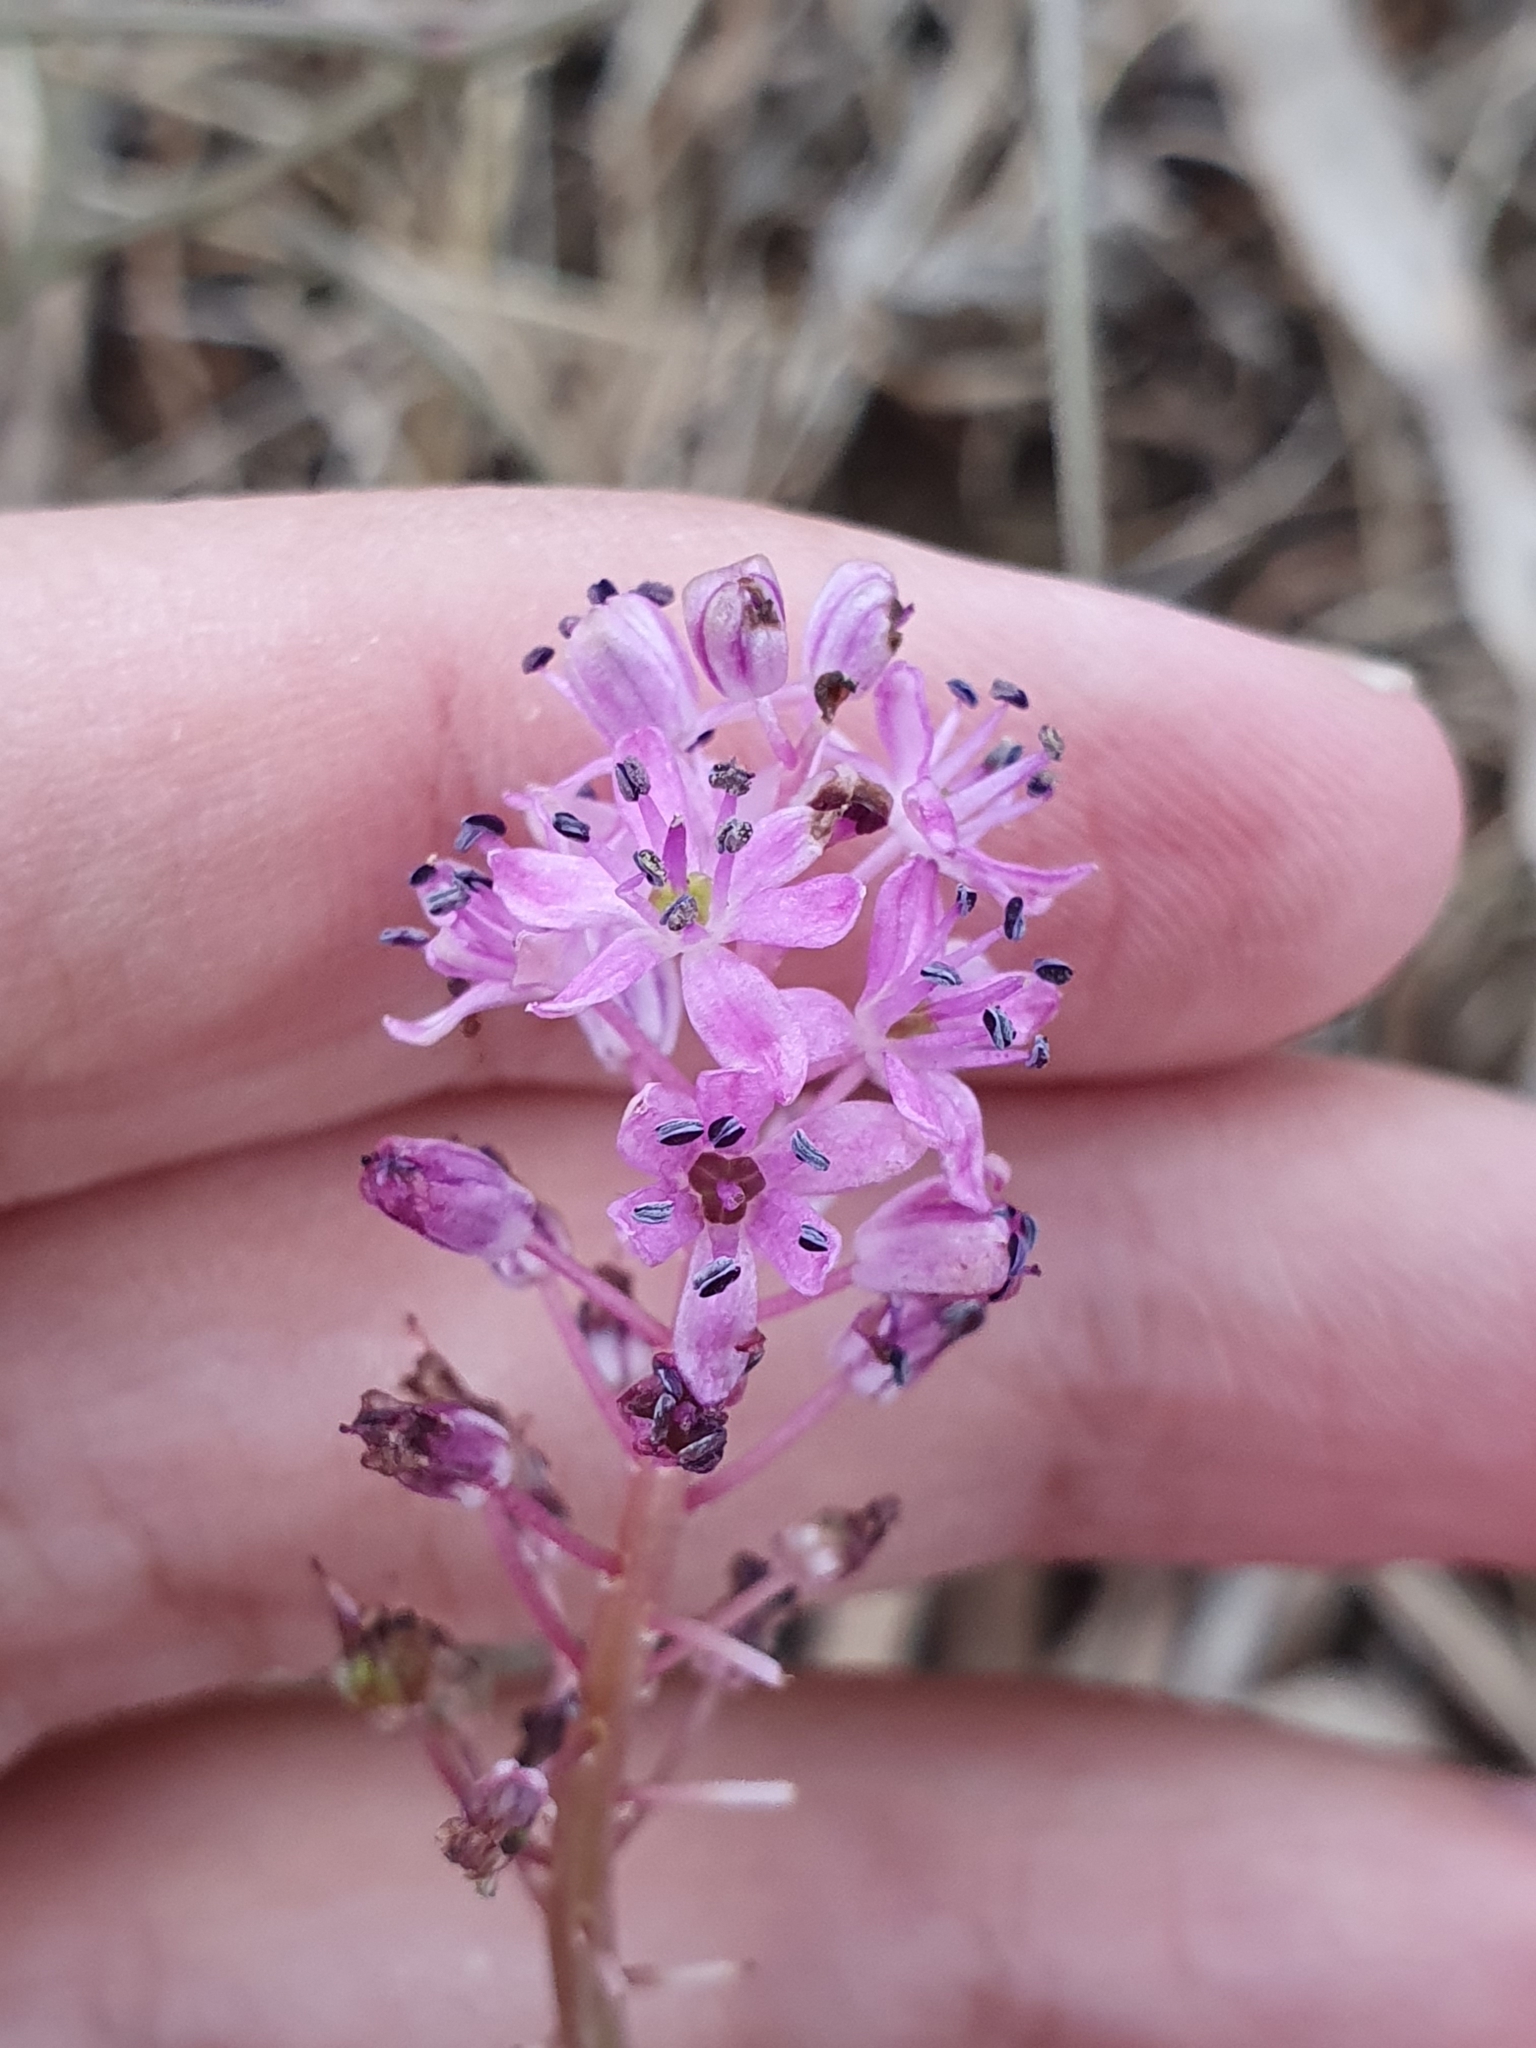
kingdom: Plantae
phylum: Tracheophyta
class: Liliopsida
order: Asparagales
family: Asparagaceae
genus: Barnardia
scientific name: Barnardia numidica
